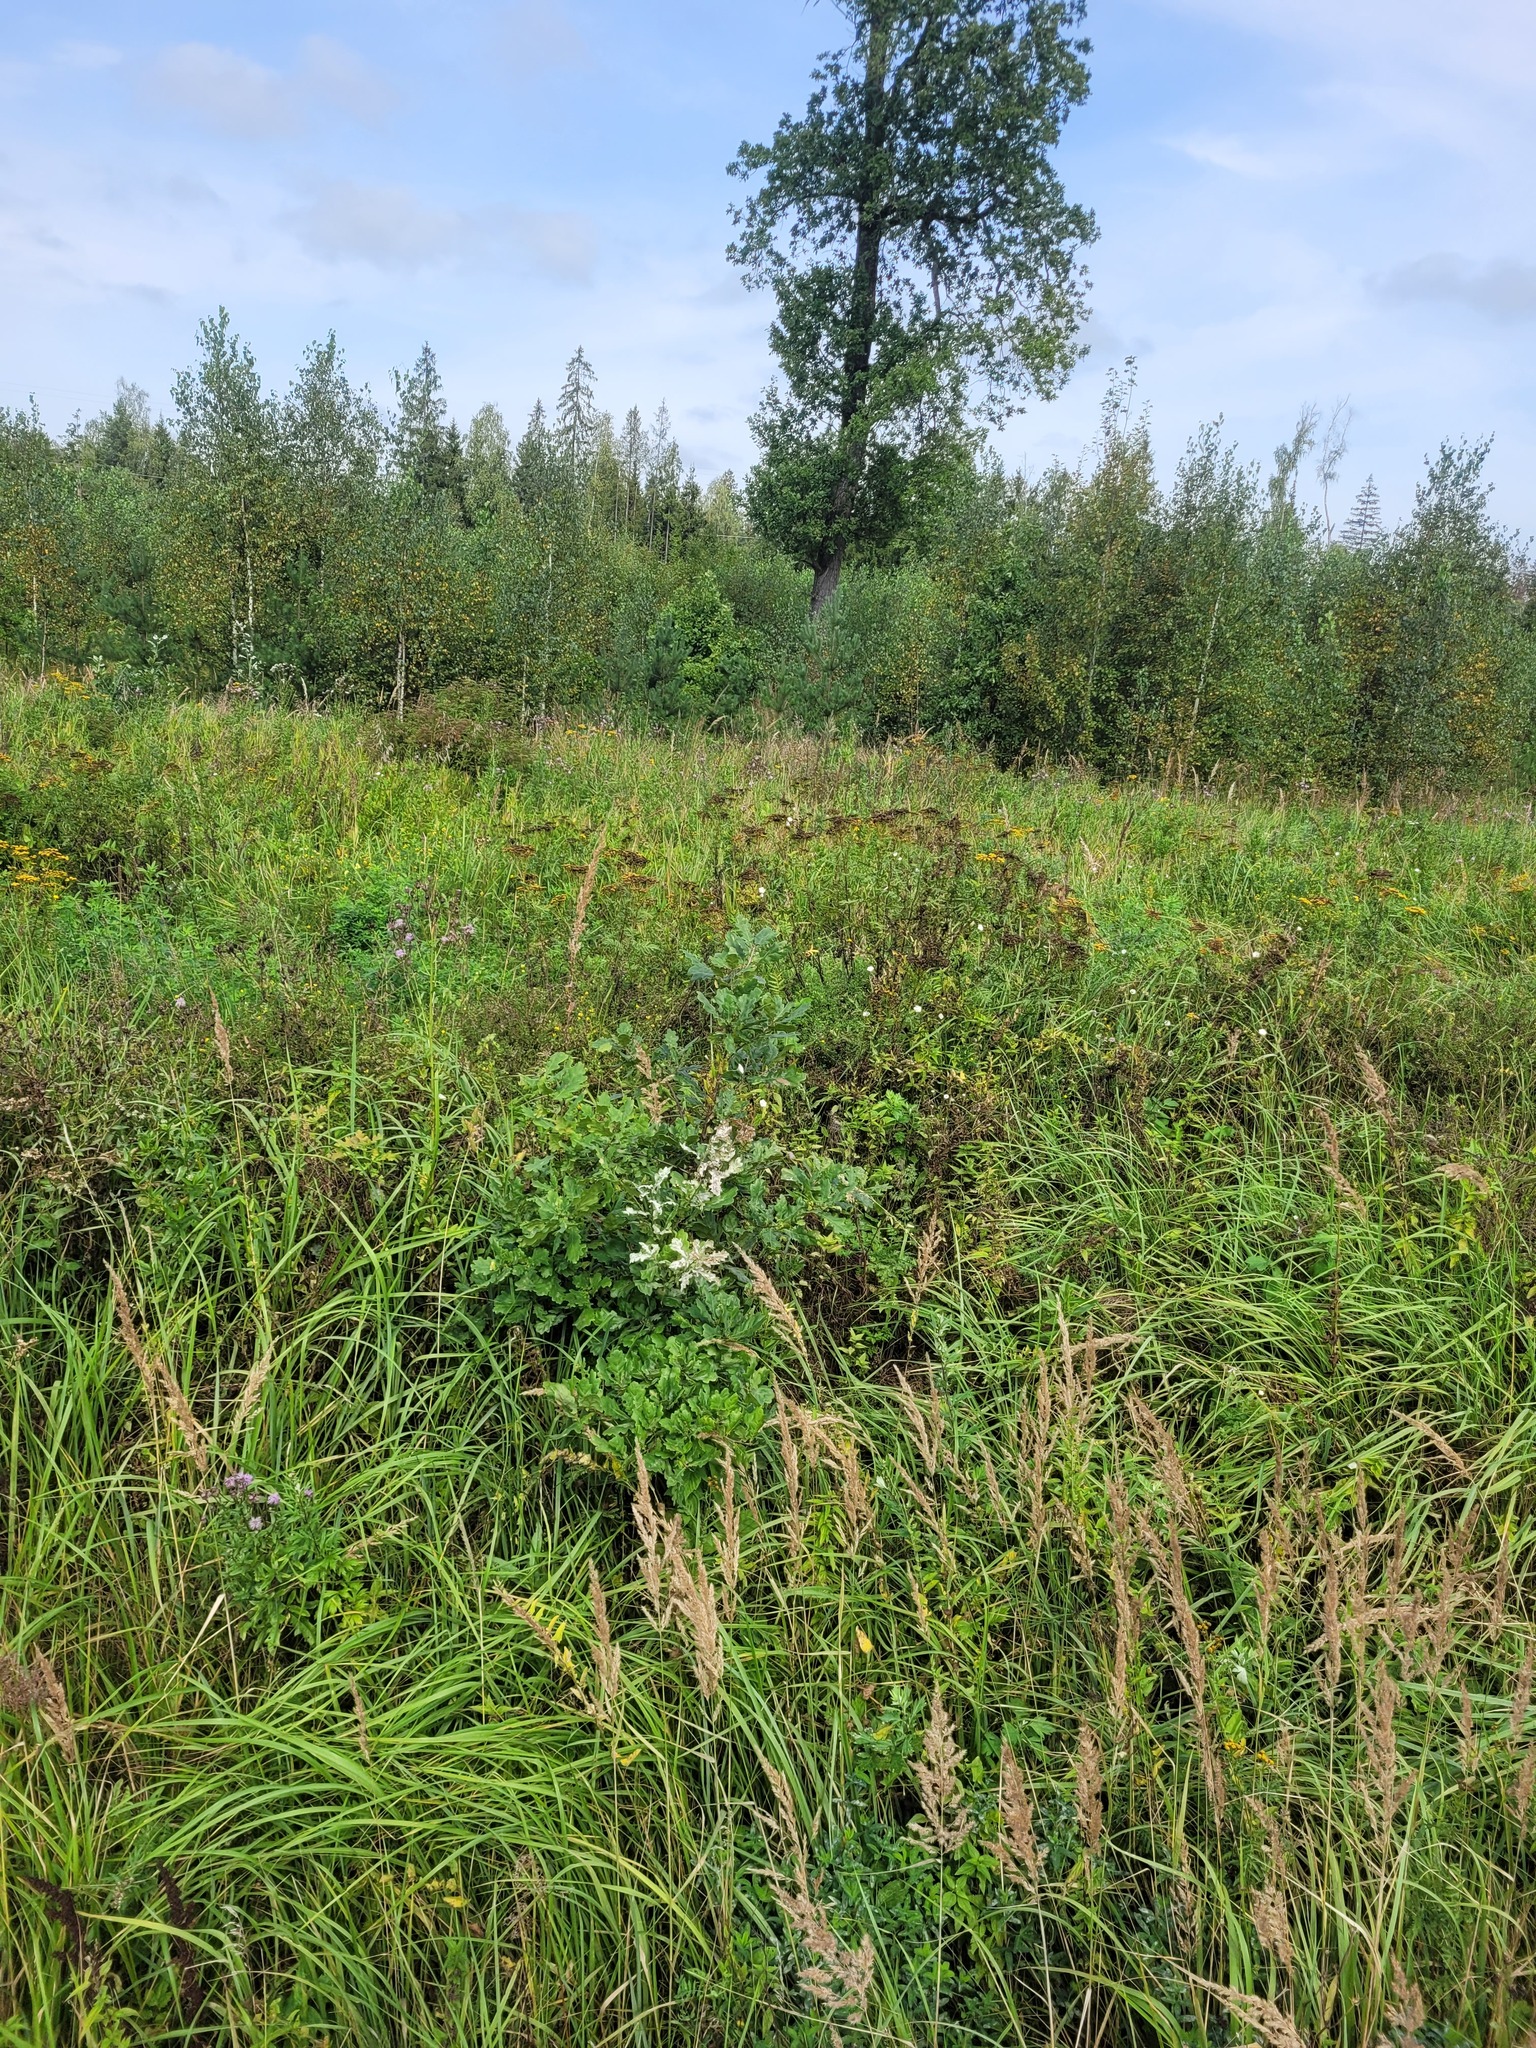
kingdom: Plantae
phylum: Tracheophyta
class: Magnoliopsida
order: Fagales
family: Fagaceae
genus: Quercus
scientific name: Quercus robur
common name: Pedunculate oak
